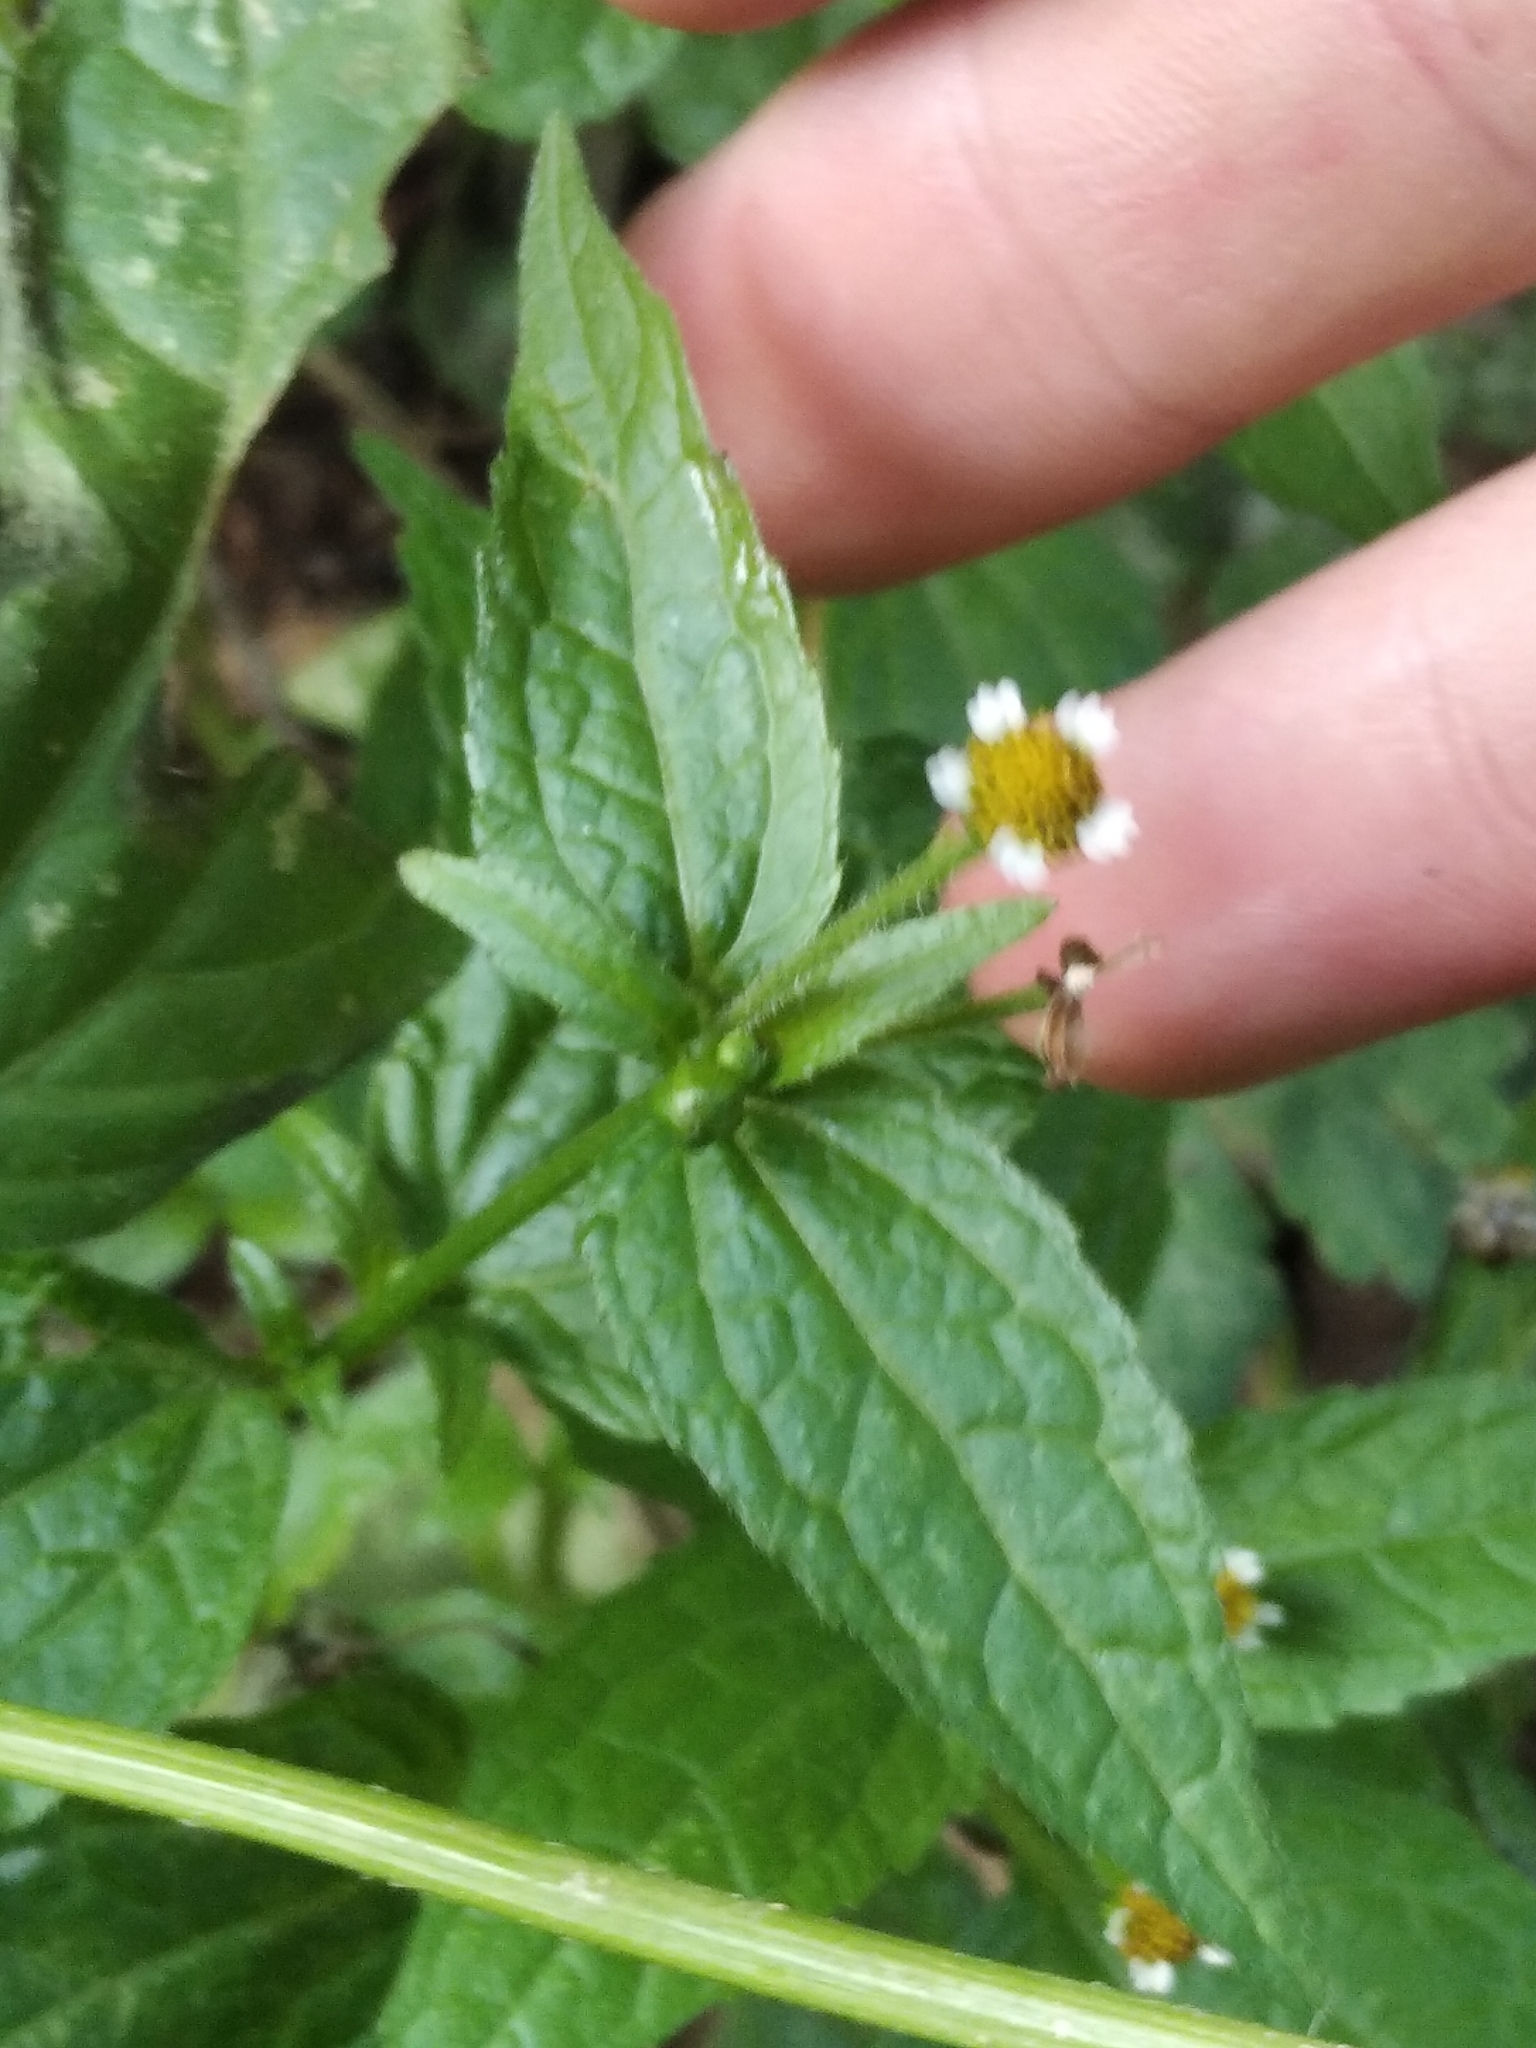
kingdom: Plantae
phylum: Tracheophyta
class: Magnoliopsida
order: Asterales
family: Asteraceae
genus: Galinsoga
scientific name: Galinsoga parviflora
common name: Gallant soldier
